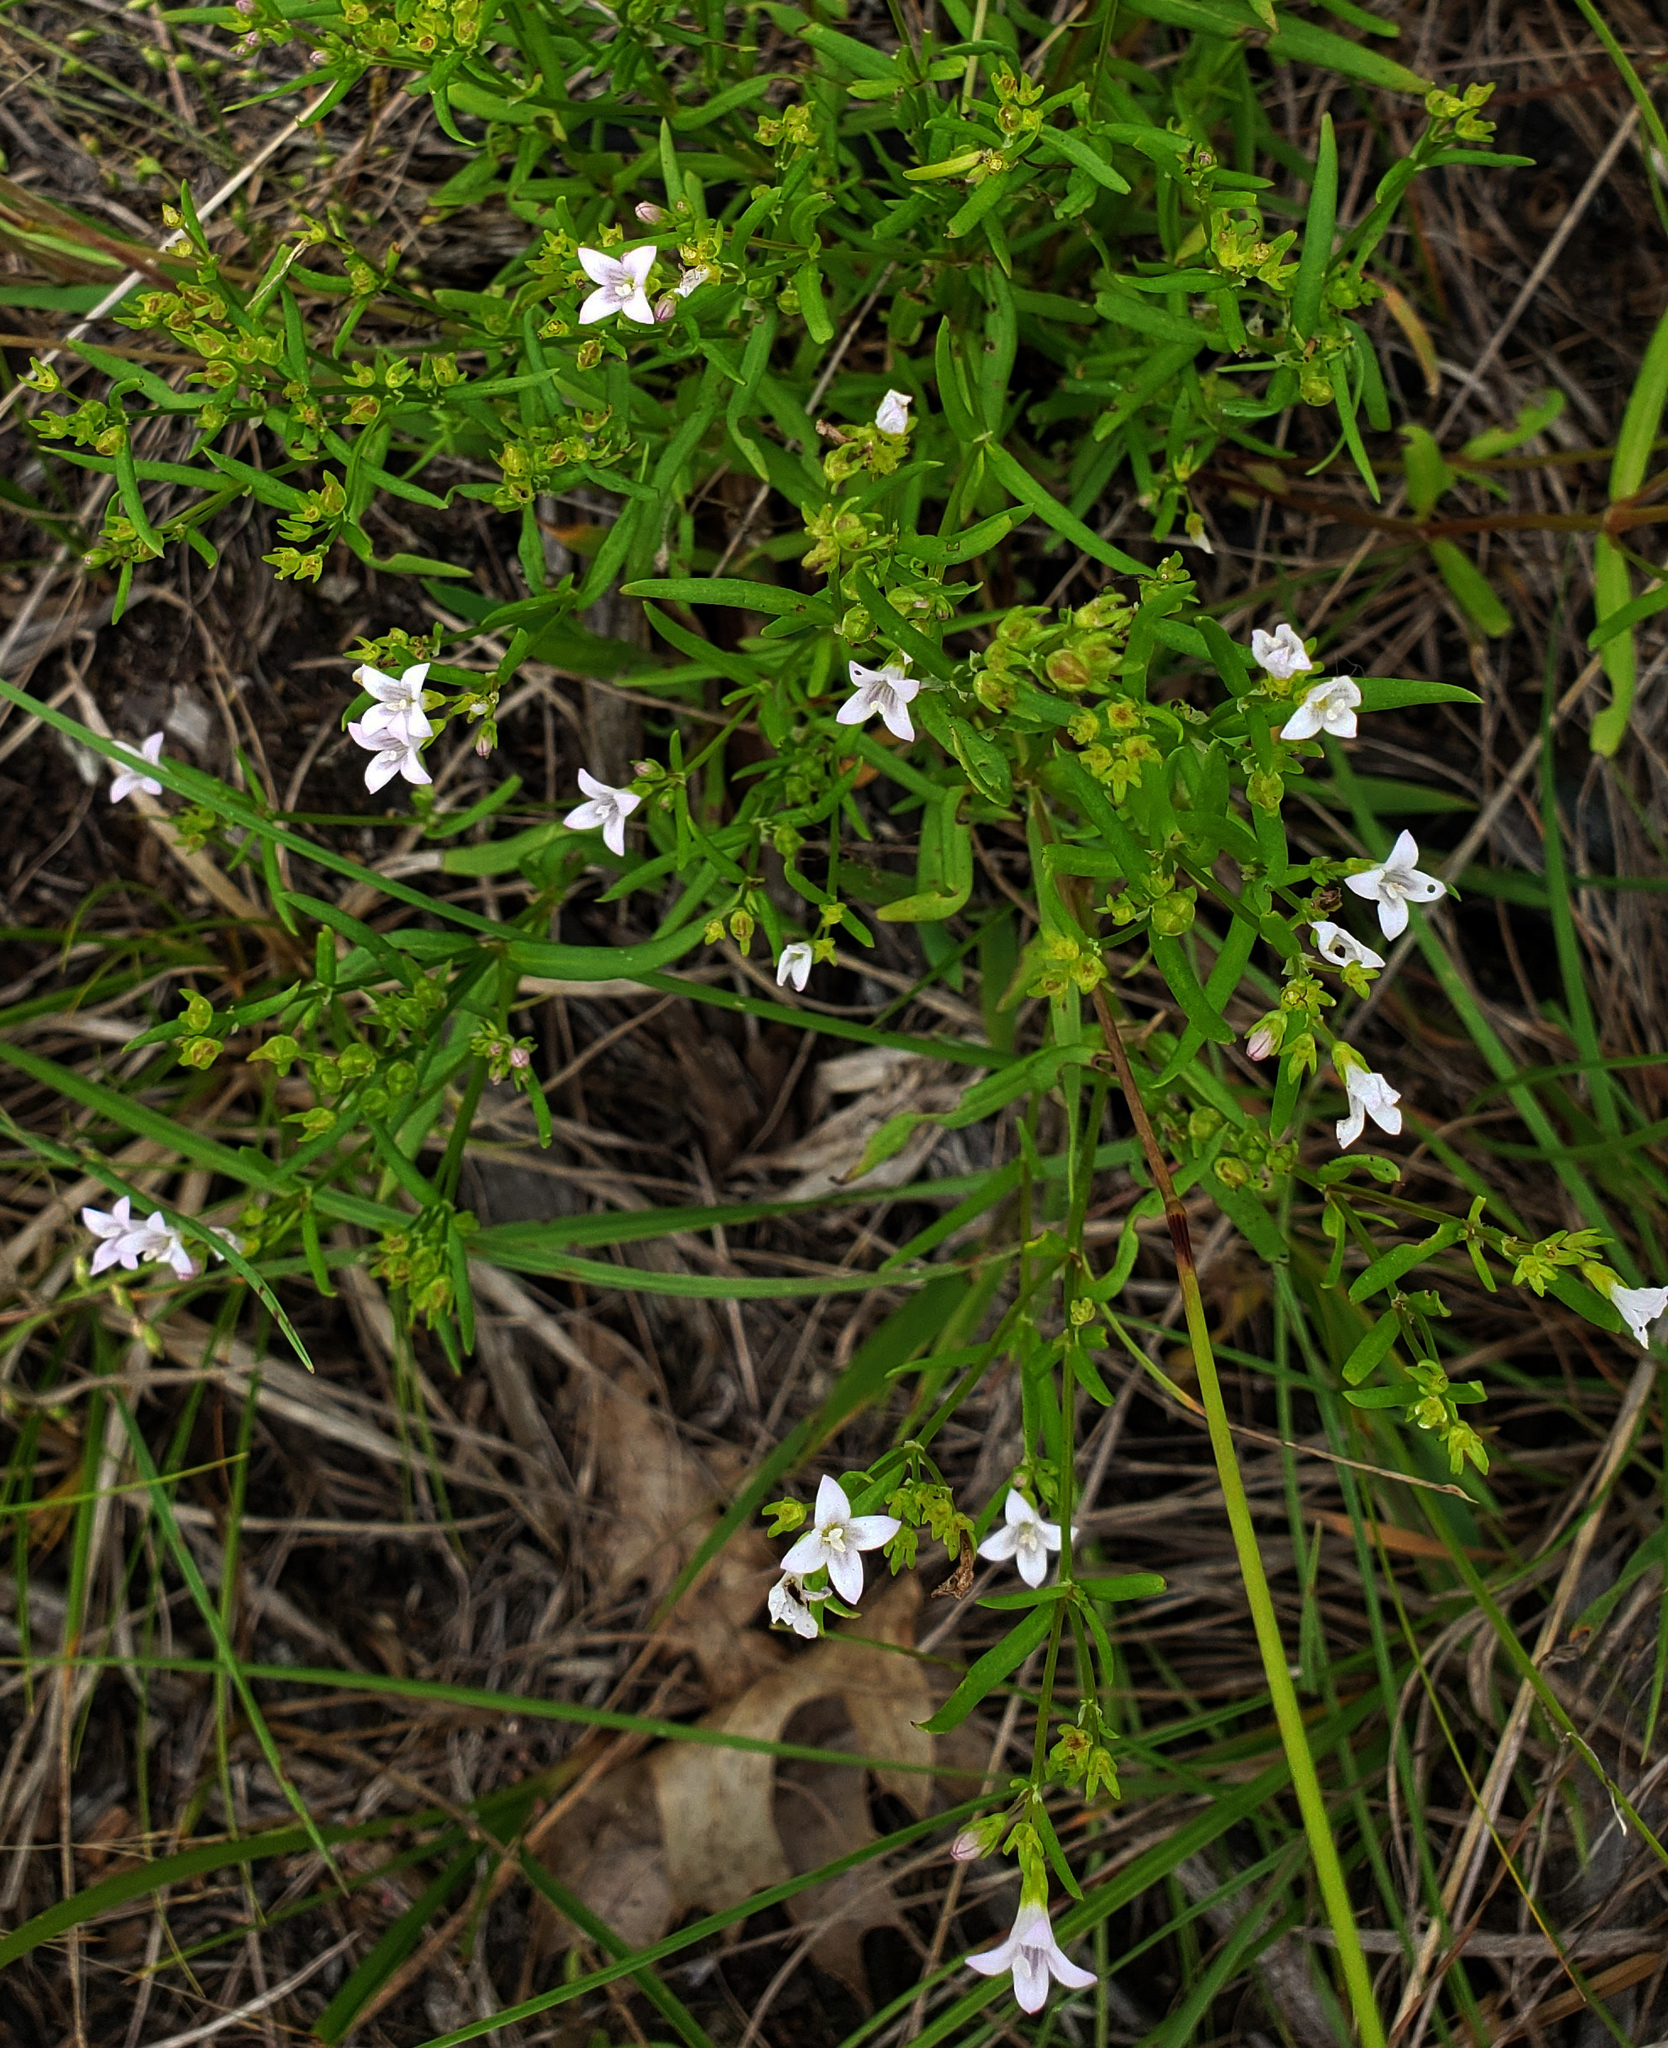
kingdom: Plantae
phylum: Tracheophyta
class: Magnoliopsida
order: Gentianales
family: Rubiaceae
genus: Houstonia
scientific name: Houstonia longifolia
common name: Long-leaved bluets
